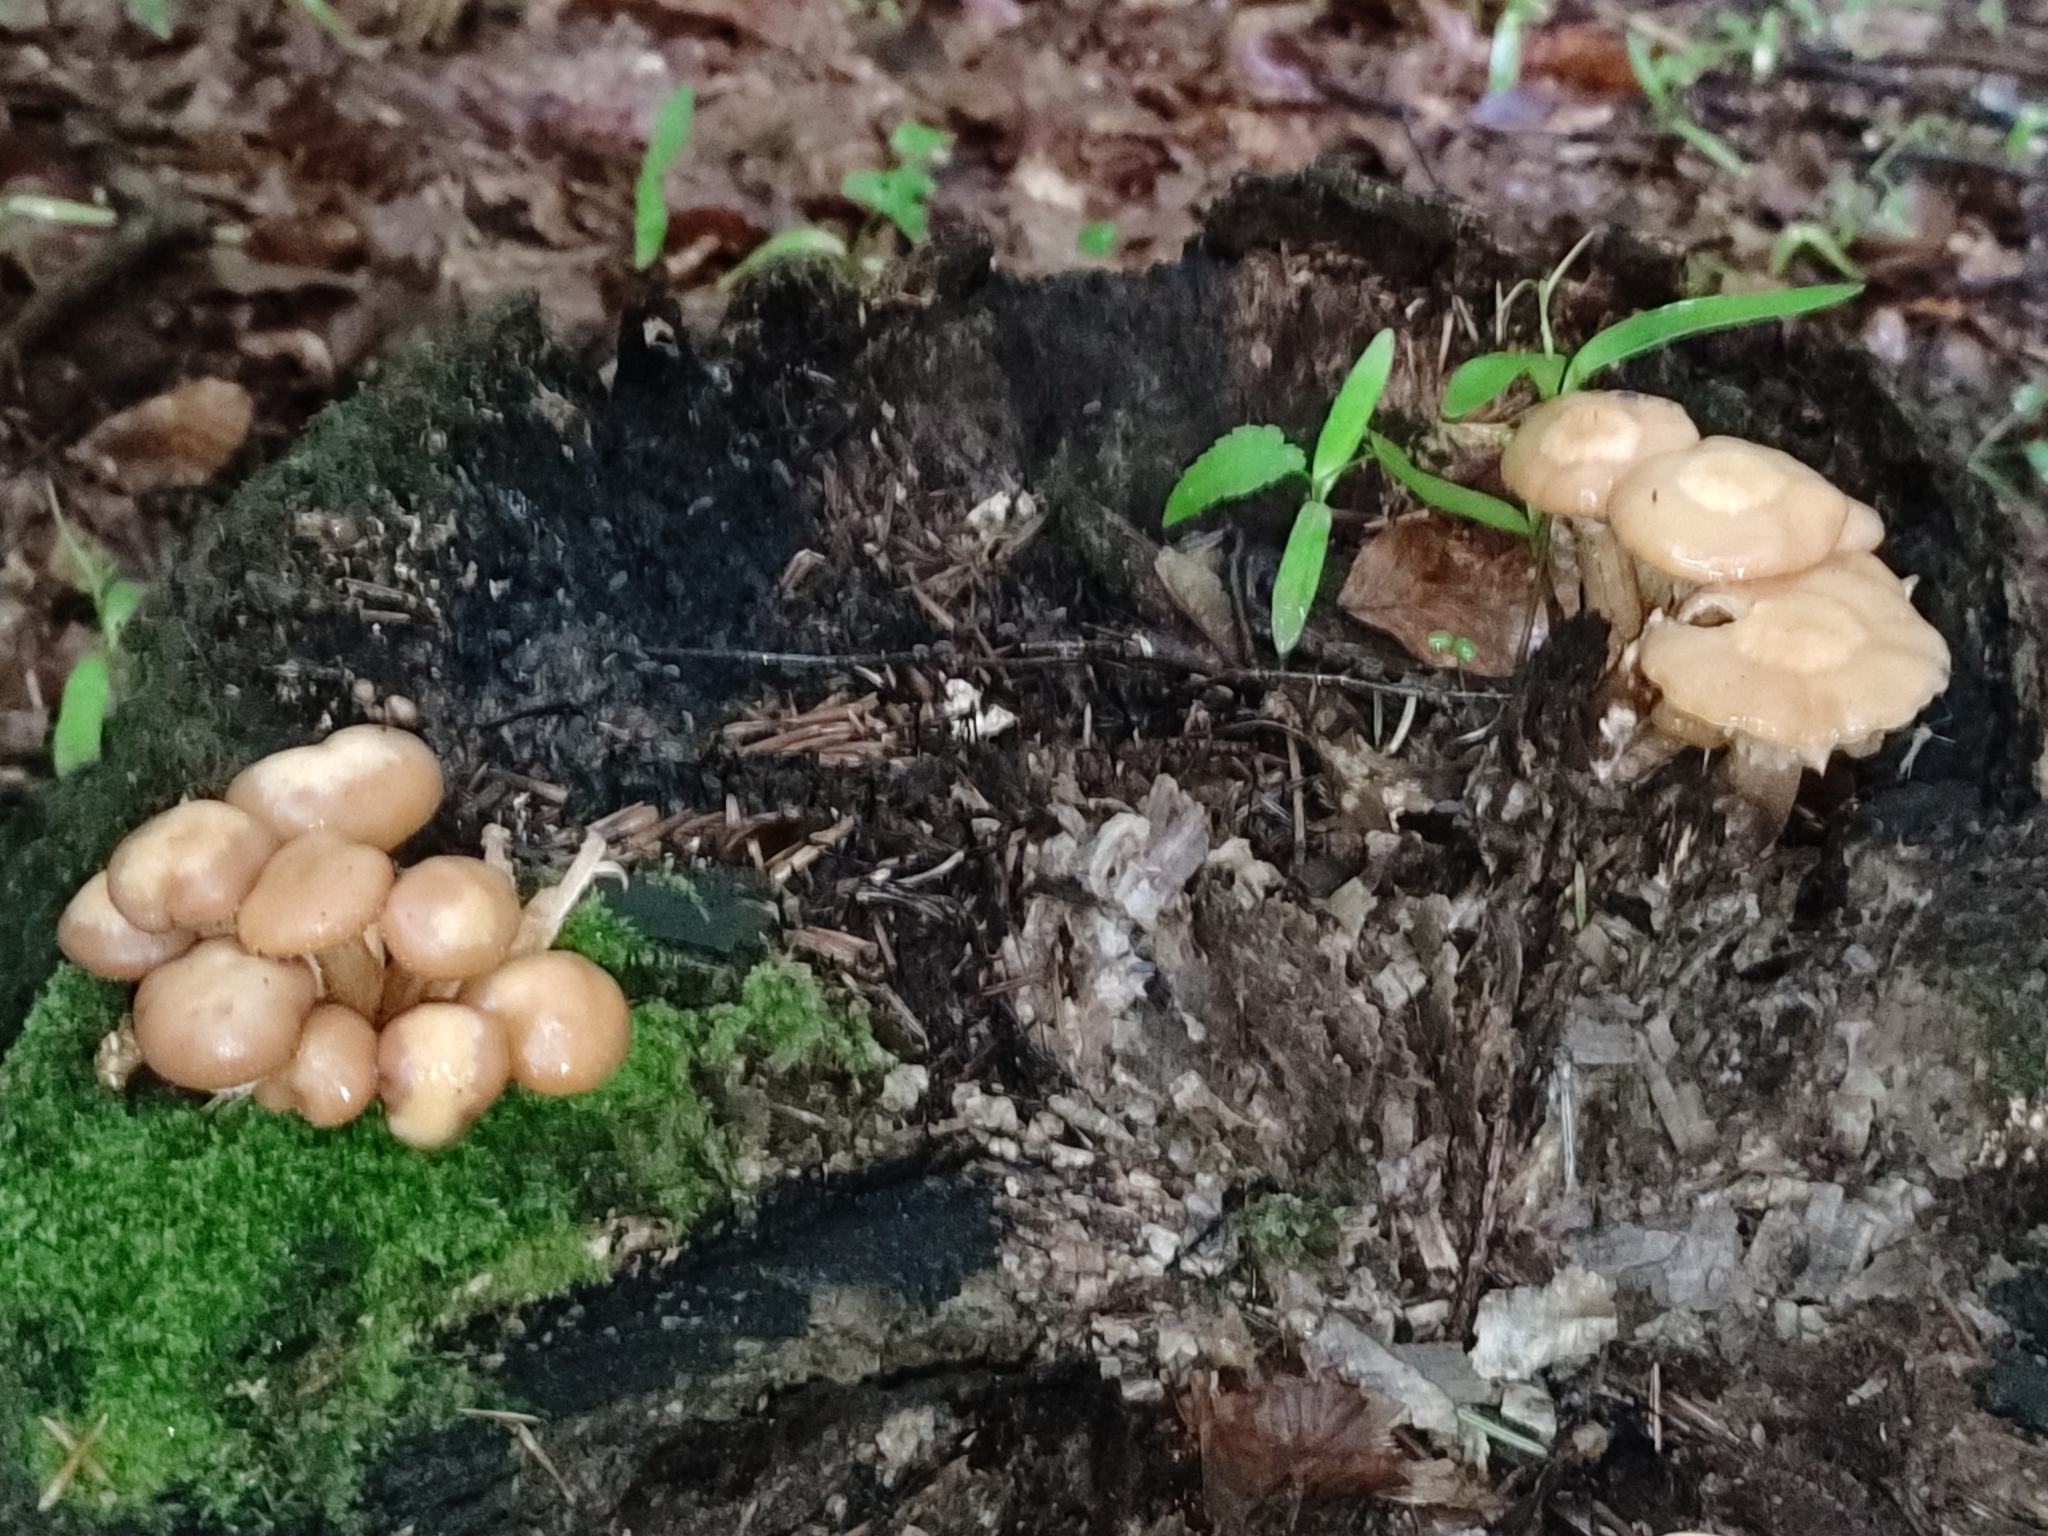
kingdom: Fungi
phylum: Basidiomycota
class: Agaricomycetes
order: Agaricales
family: Strophariaceae
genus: Kuehneromyces
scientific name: Kuehneromyces mutabilis
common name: Sheathed woodtuft
